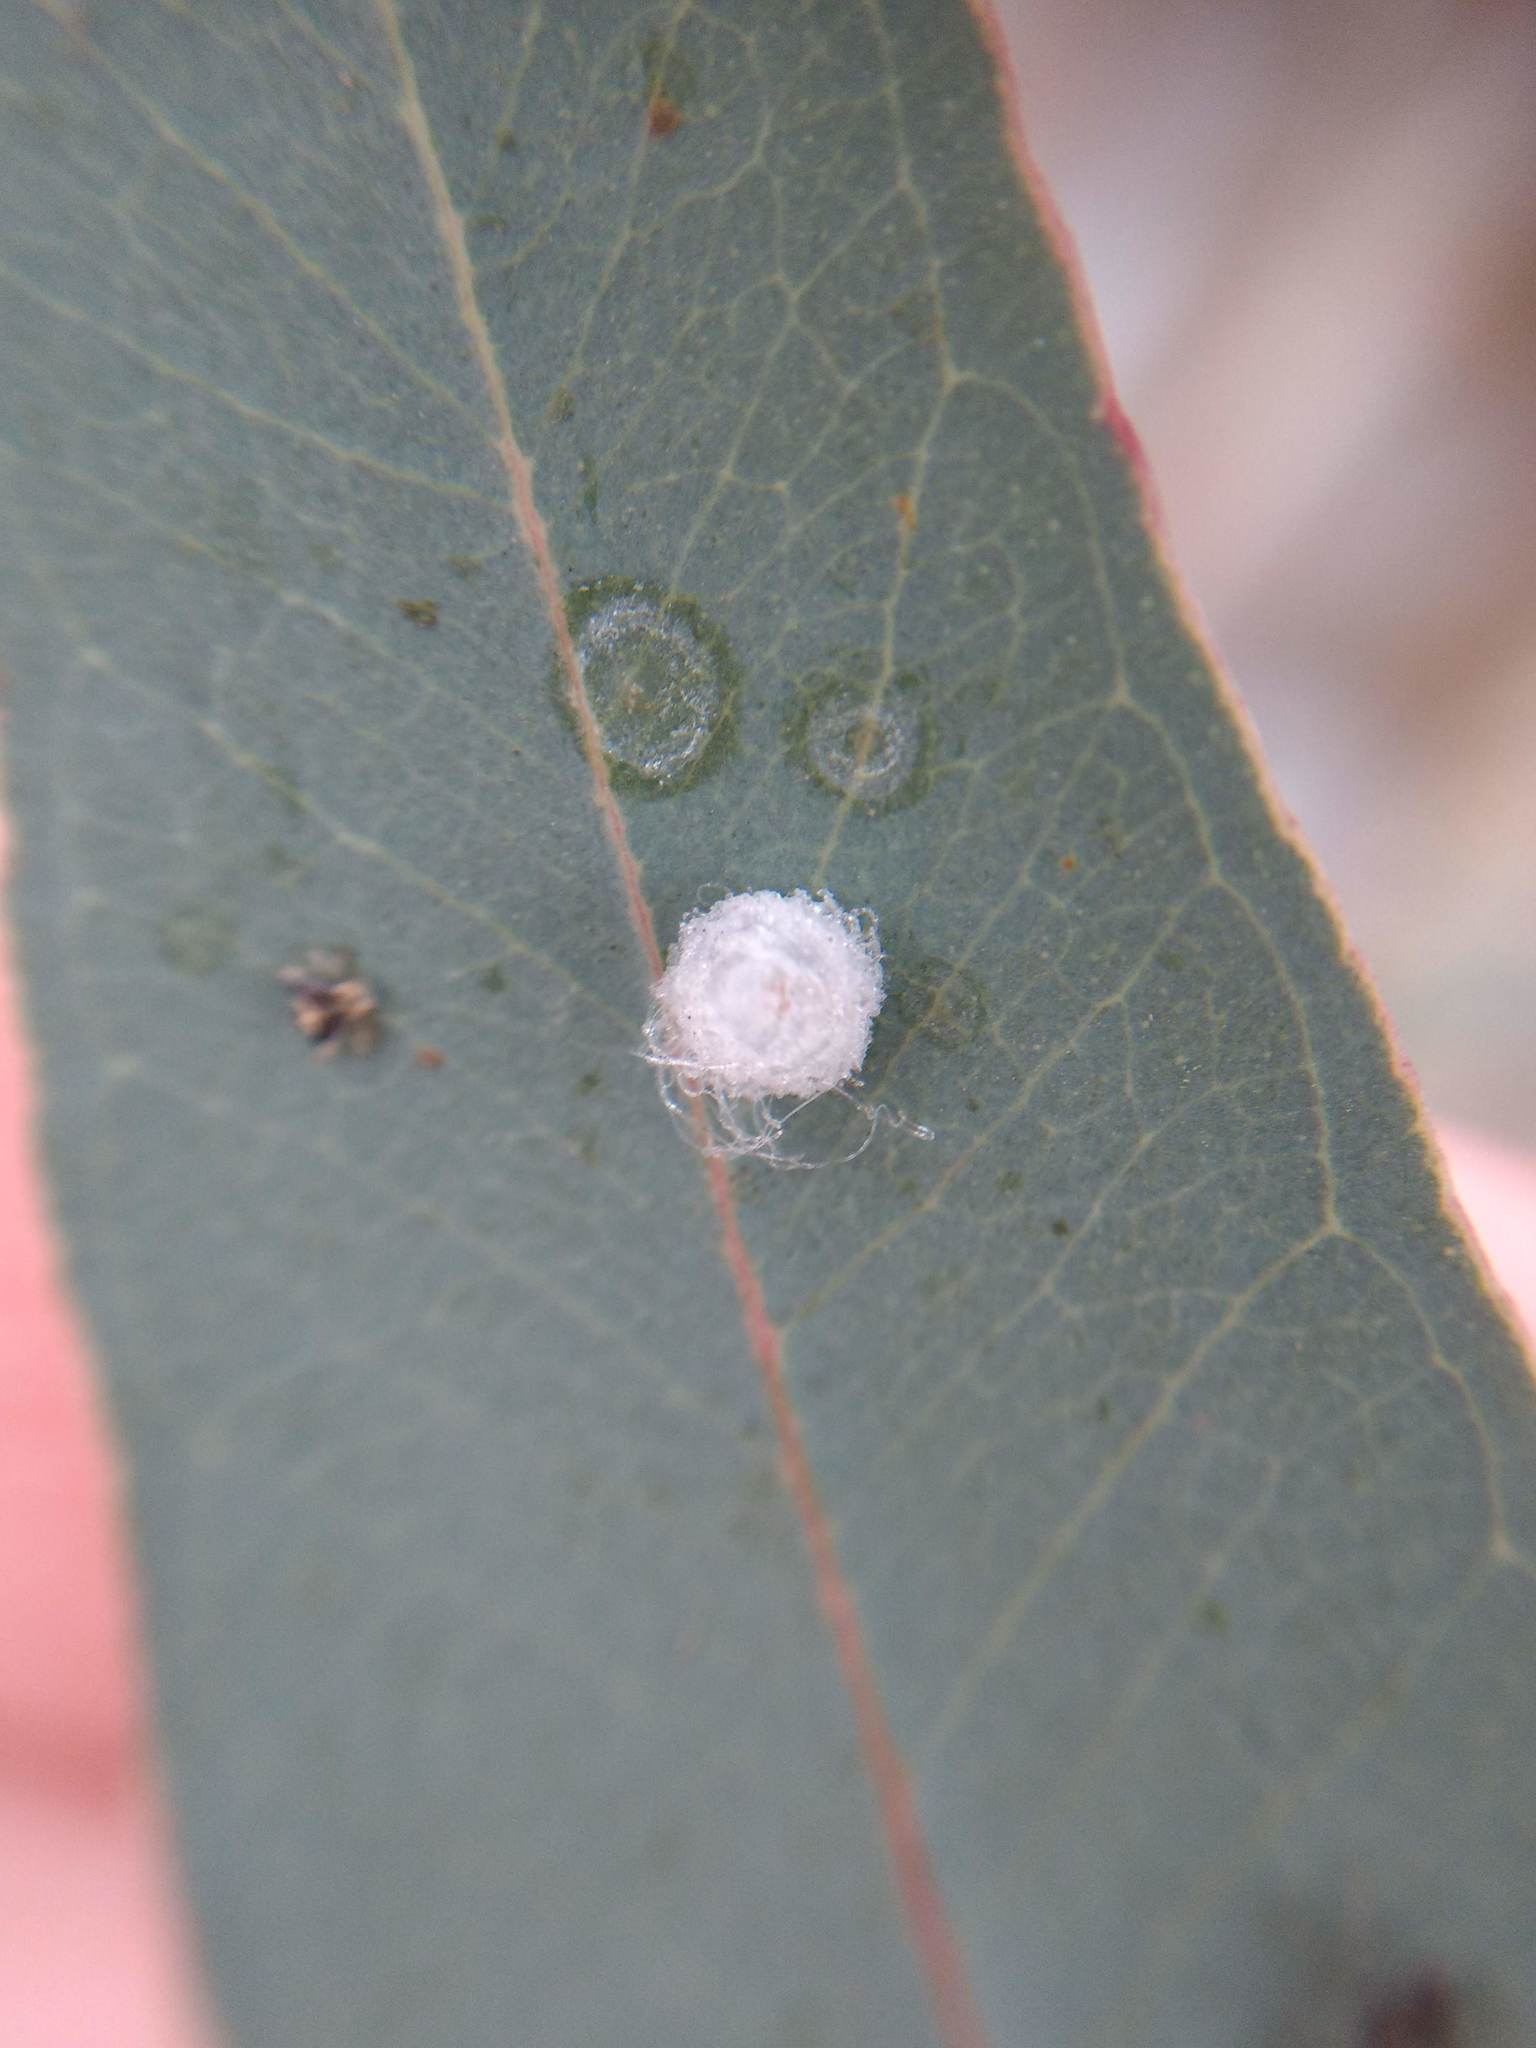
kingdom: Animalia
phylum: Arthropoda
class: Insecta
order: Hemiptera
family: Aphalaridae
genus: Glycaspis
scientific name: Glycaspis brimblecombei
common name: Red gum lerp psyllid
